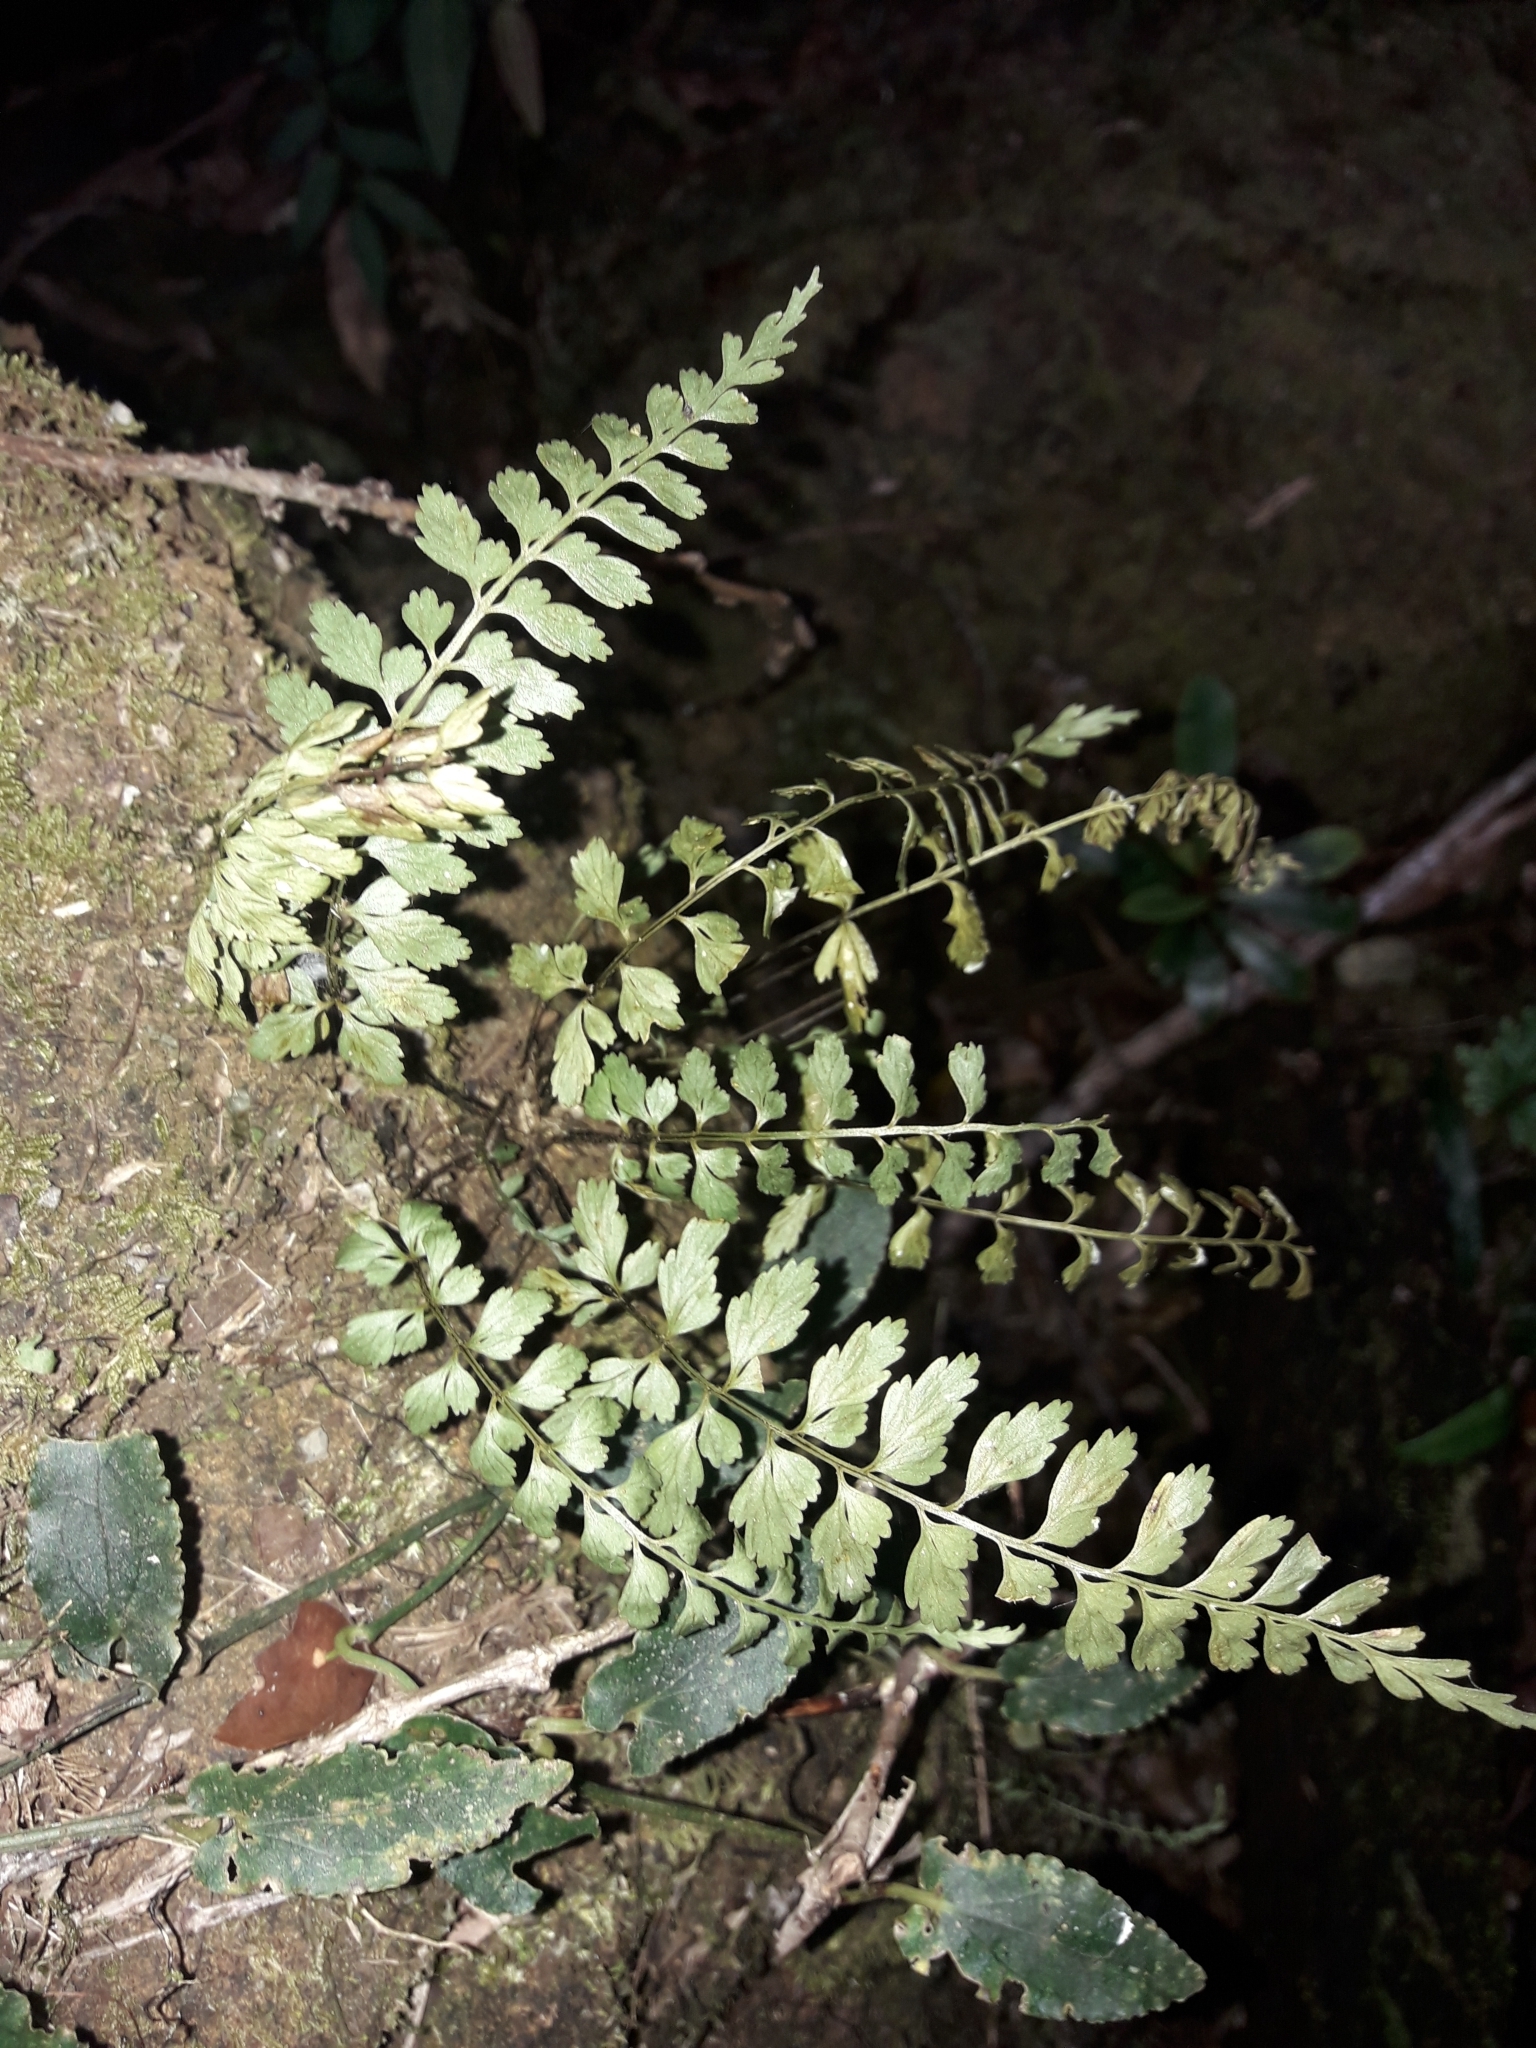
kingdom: Plantae
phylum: Tracheophyta
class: Polypodiopsida
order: Polypodiales
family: Aspleniaceae
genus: Asplenium
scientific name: Asplenium lobulatum
